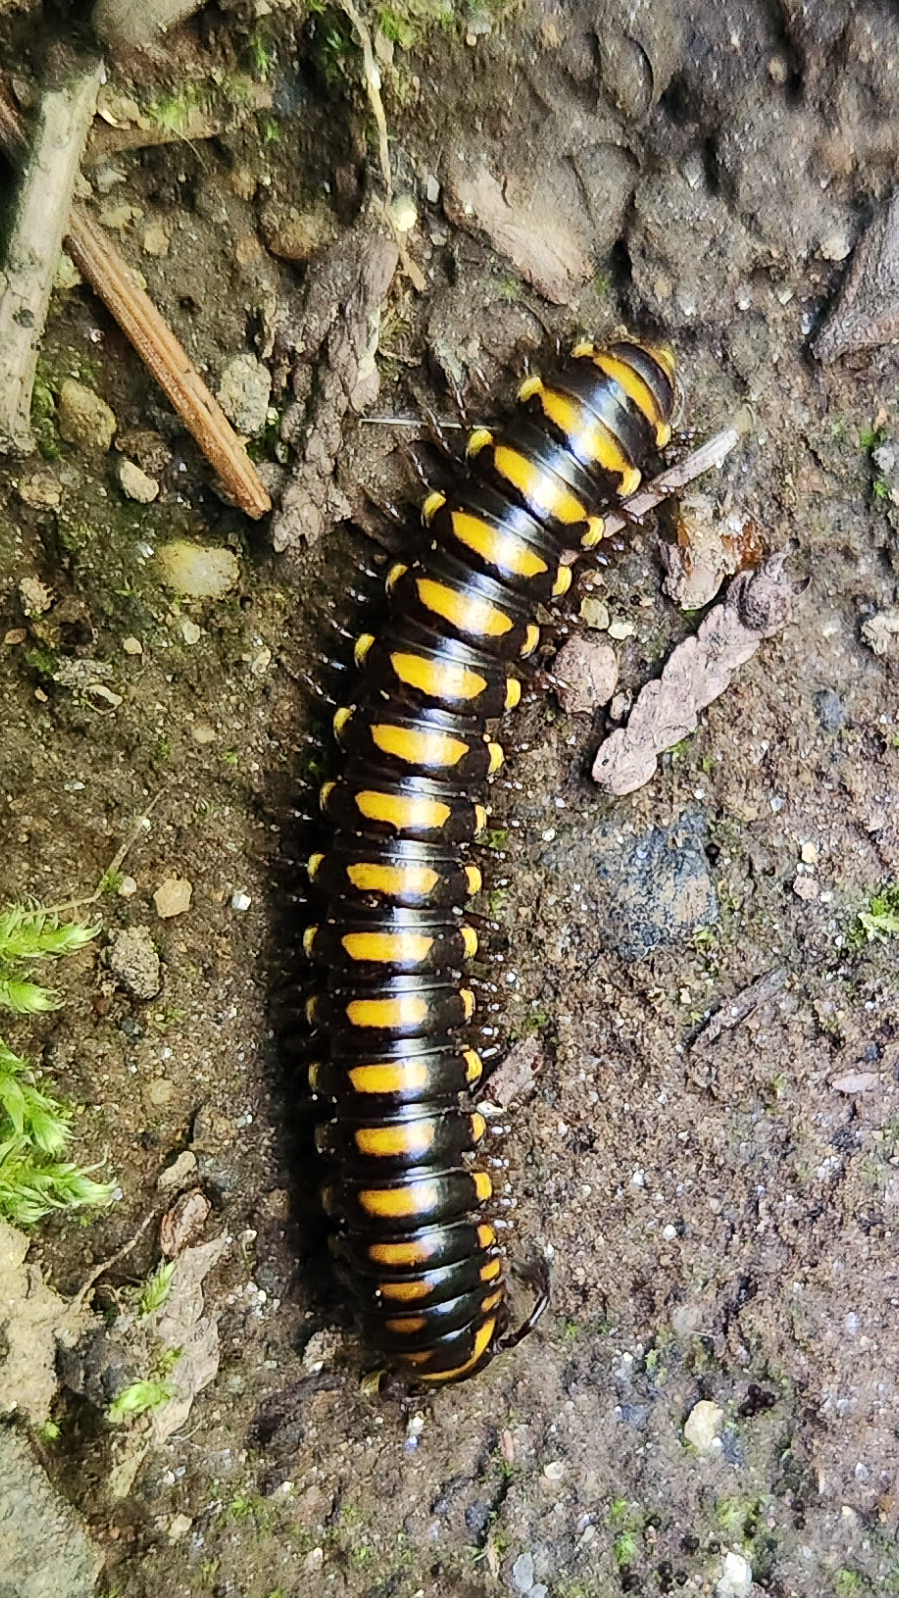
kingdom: Animalia
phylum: Arthropoda
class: Diplopoda
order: Polydesmida
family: Xystodesmidae
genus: Orophe
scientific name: Orophe unicus
